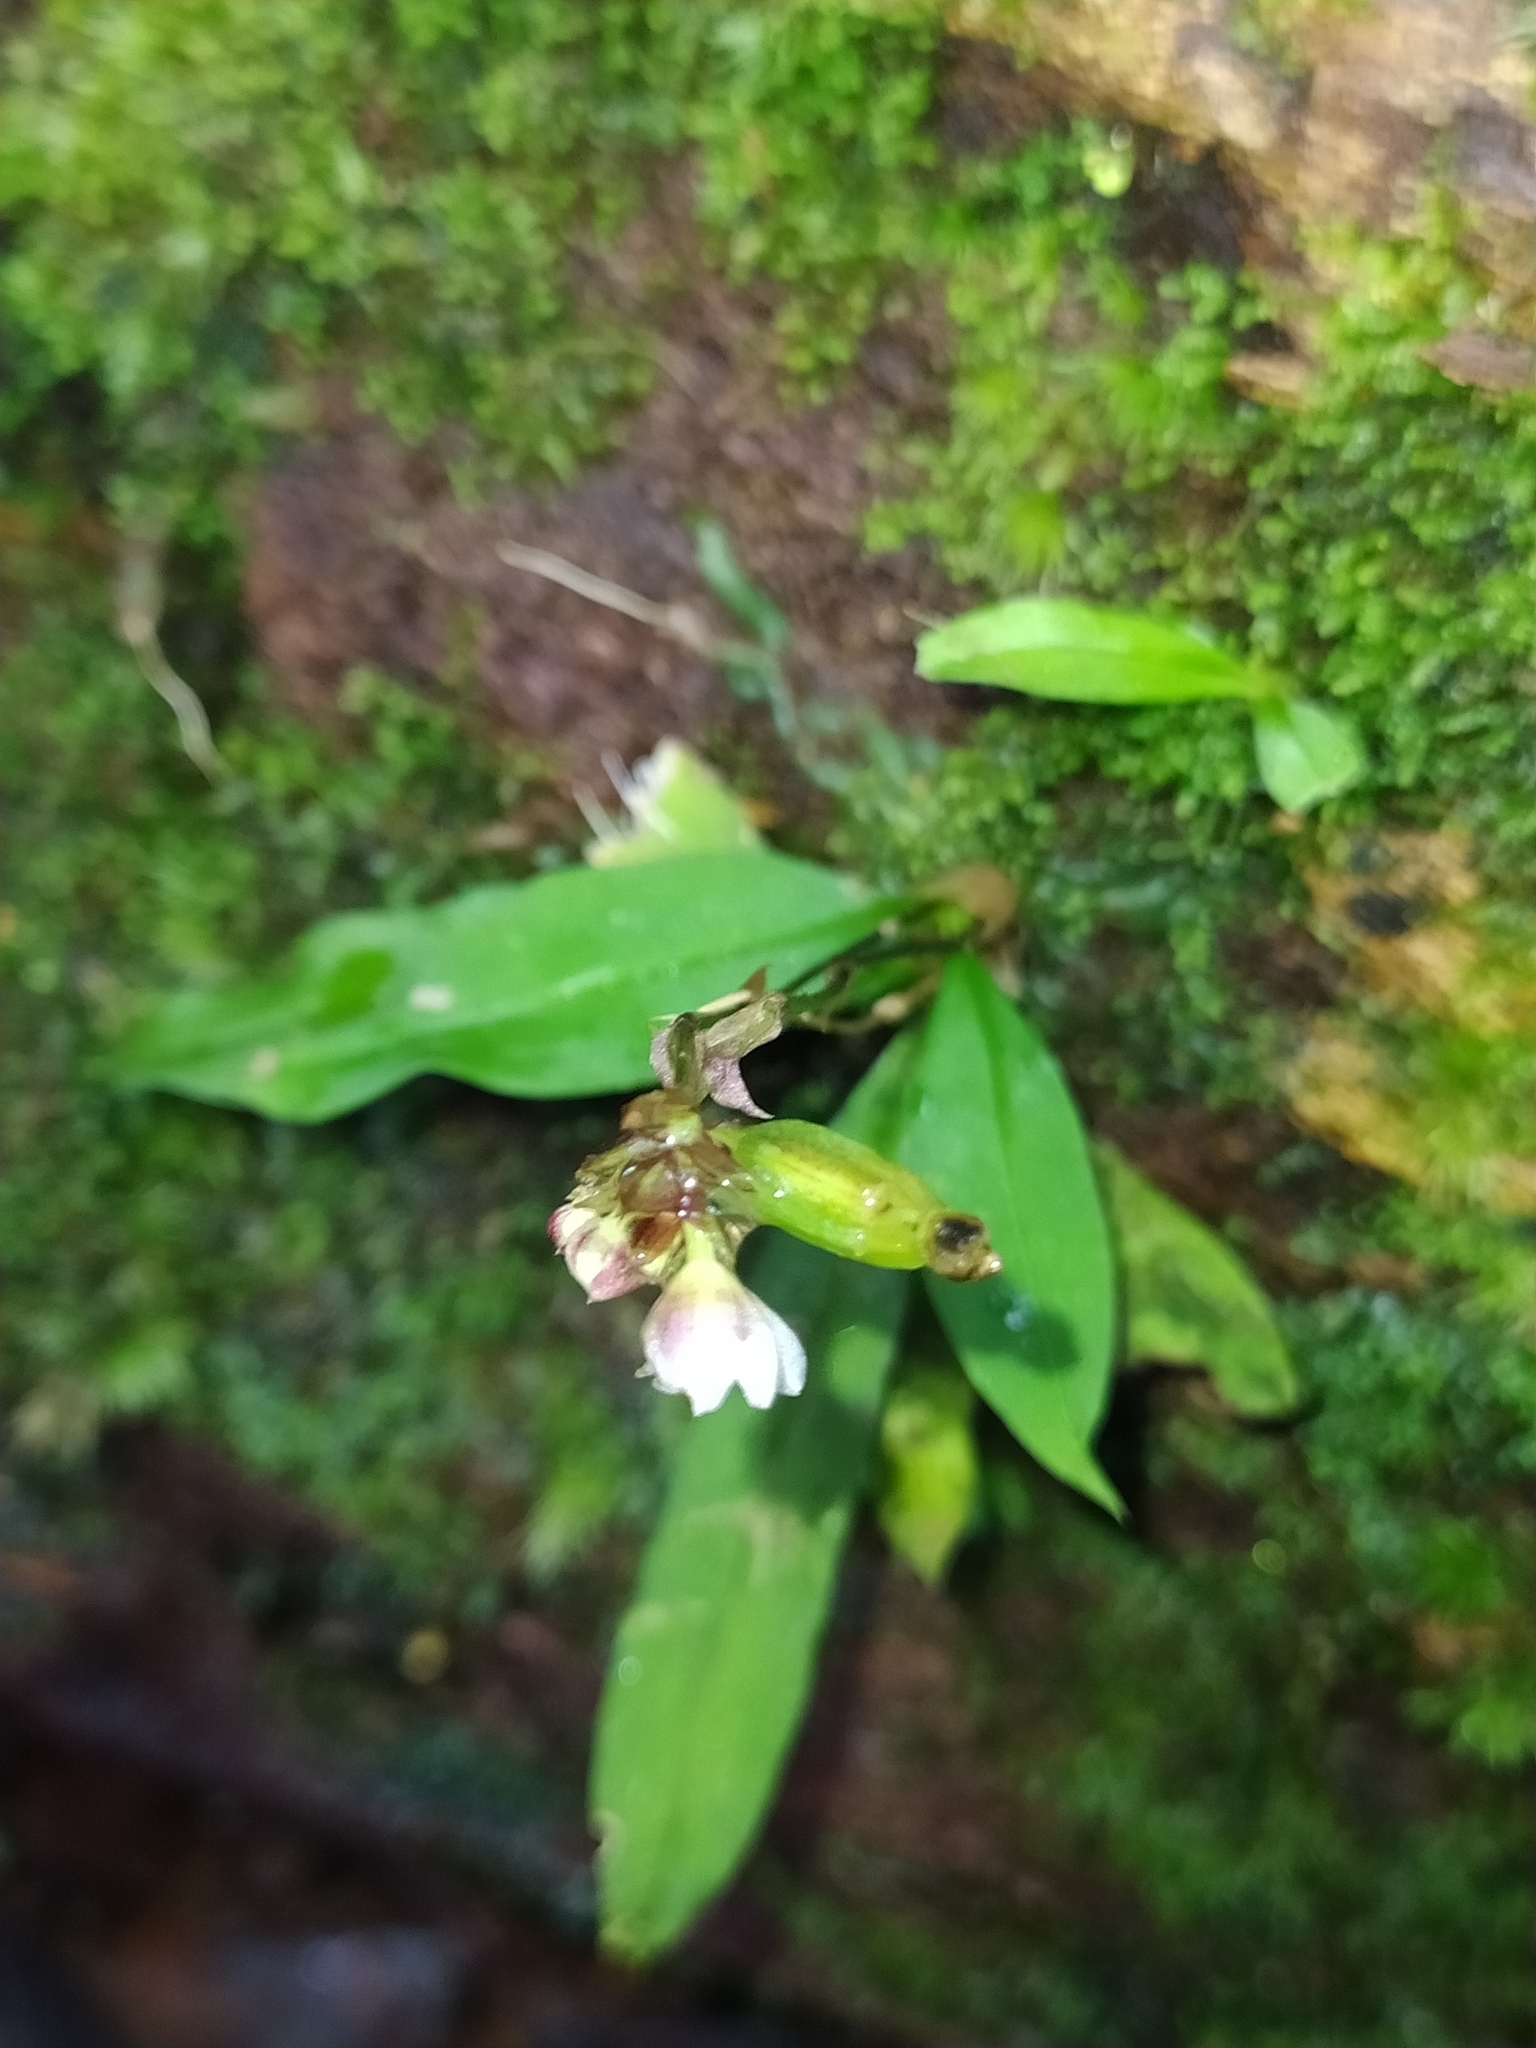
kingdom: Plantae
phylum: Tracheophyta
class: Liliopsida
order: Asparagales
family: Orchidaceae
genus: Cheiradenia
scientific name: Cheiradenia cuspidata
